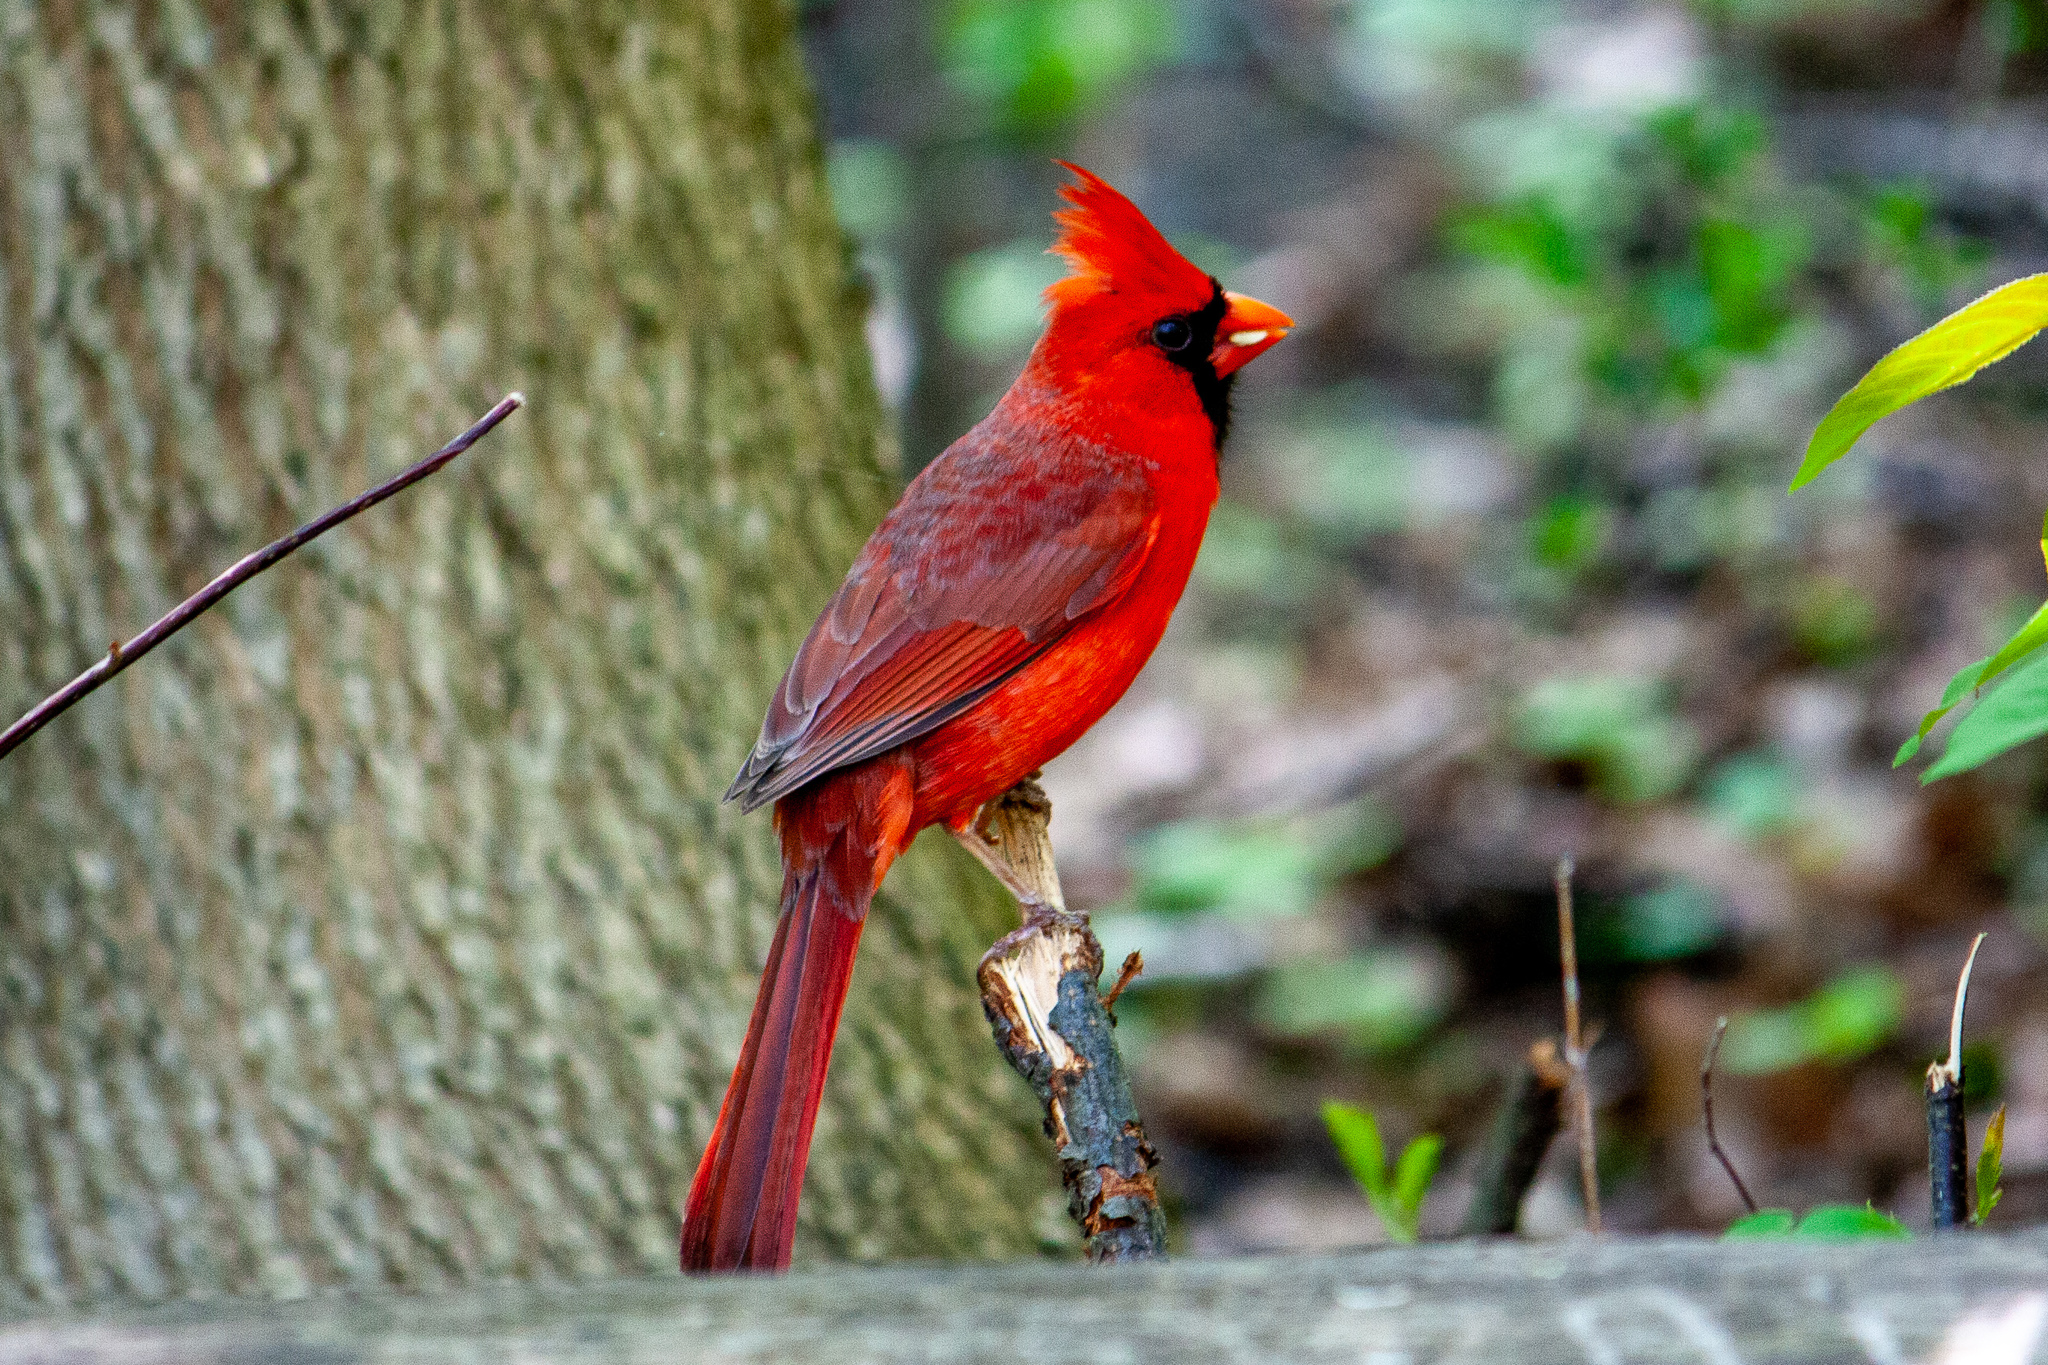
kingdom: Animalia
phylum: Chordata
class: Aves
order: Passeriformes
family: Cardinalidae
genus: Cardinalis
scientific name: Cardinalis cardinalis
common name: Northern cardinal
